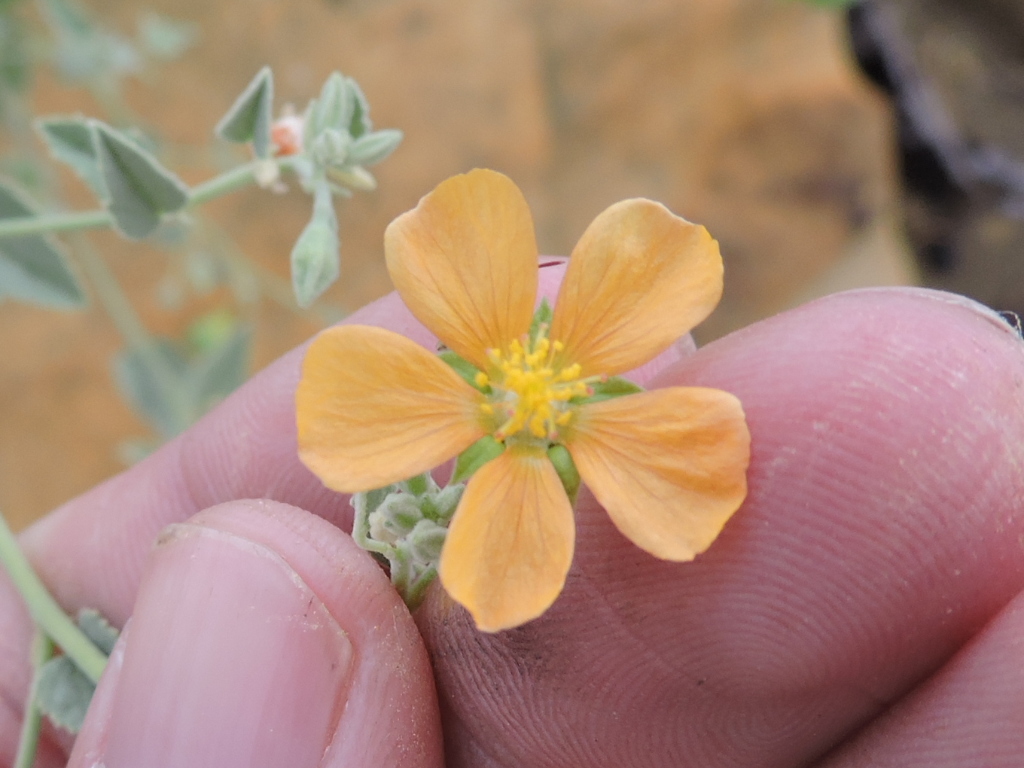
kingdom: Plantae
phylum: Tracheophyta
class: Magnoliopsida
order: Malvales
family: Malvaceae
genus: Abutilon
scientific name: Abutilon fruticosum
